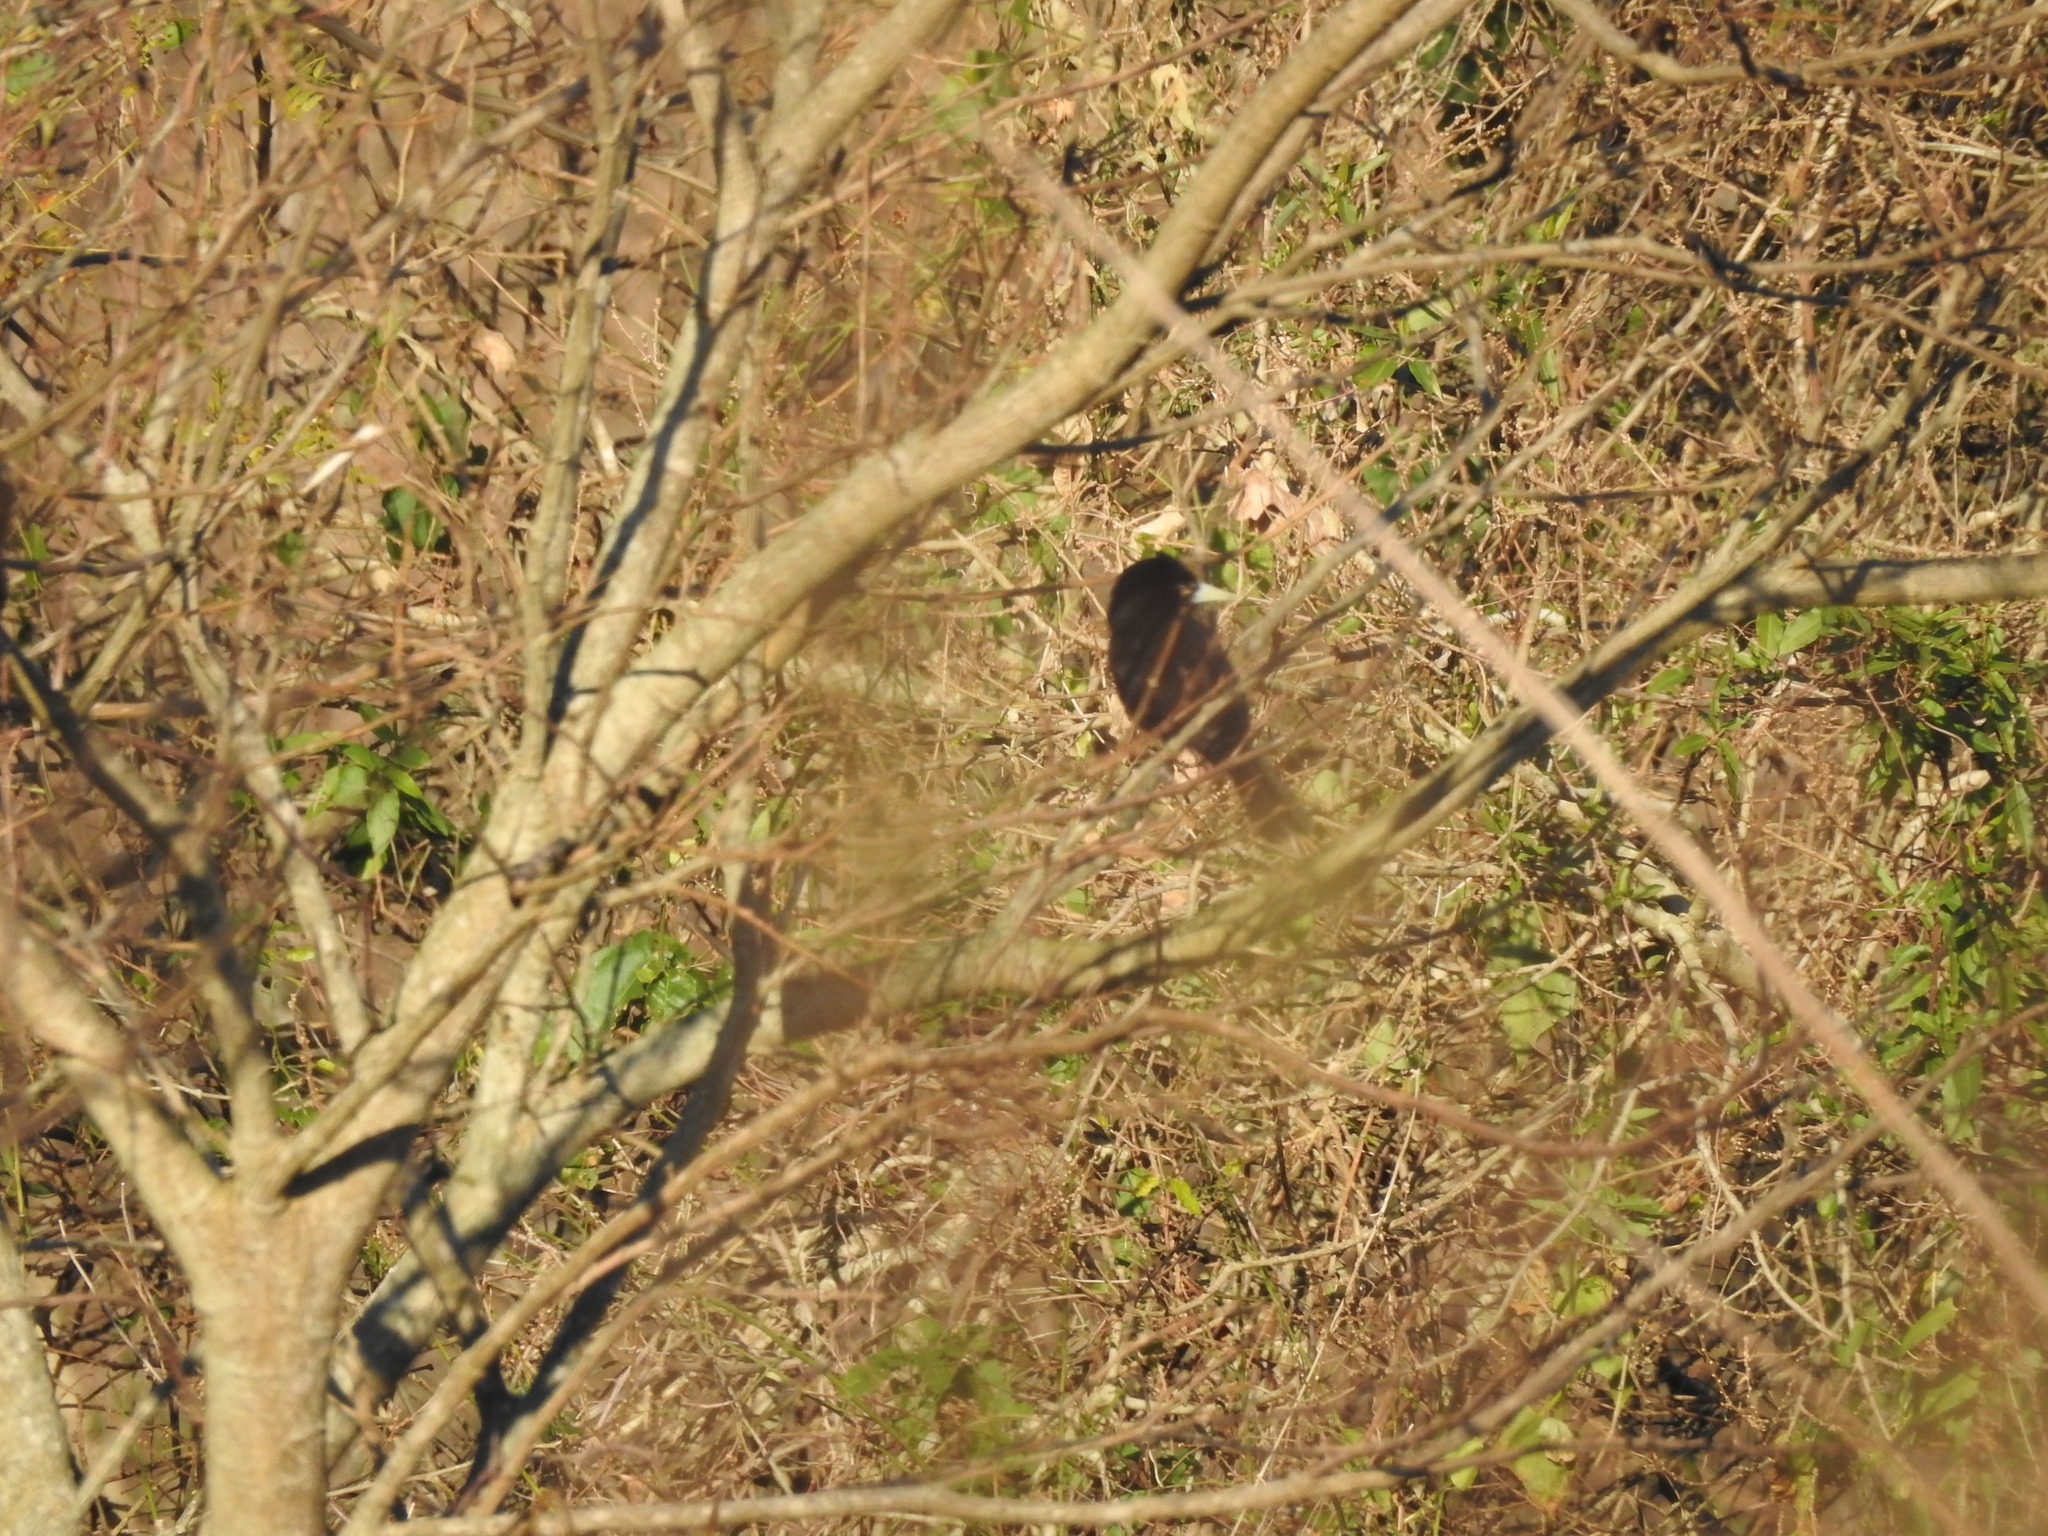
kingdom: Animalia
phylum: Chordata
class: Aves
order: Passeriformes
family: Icteridae
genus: Cacicus
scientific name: Cacicus solitarius
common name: Solitary cacique
